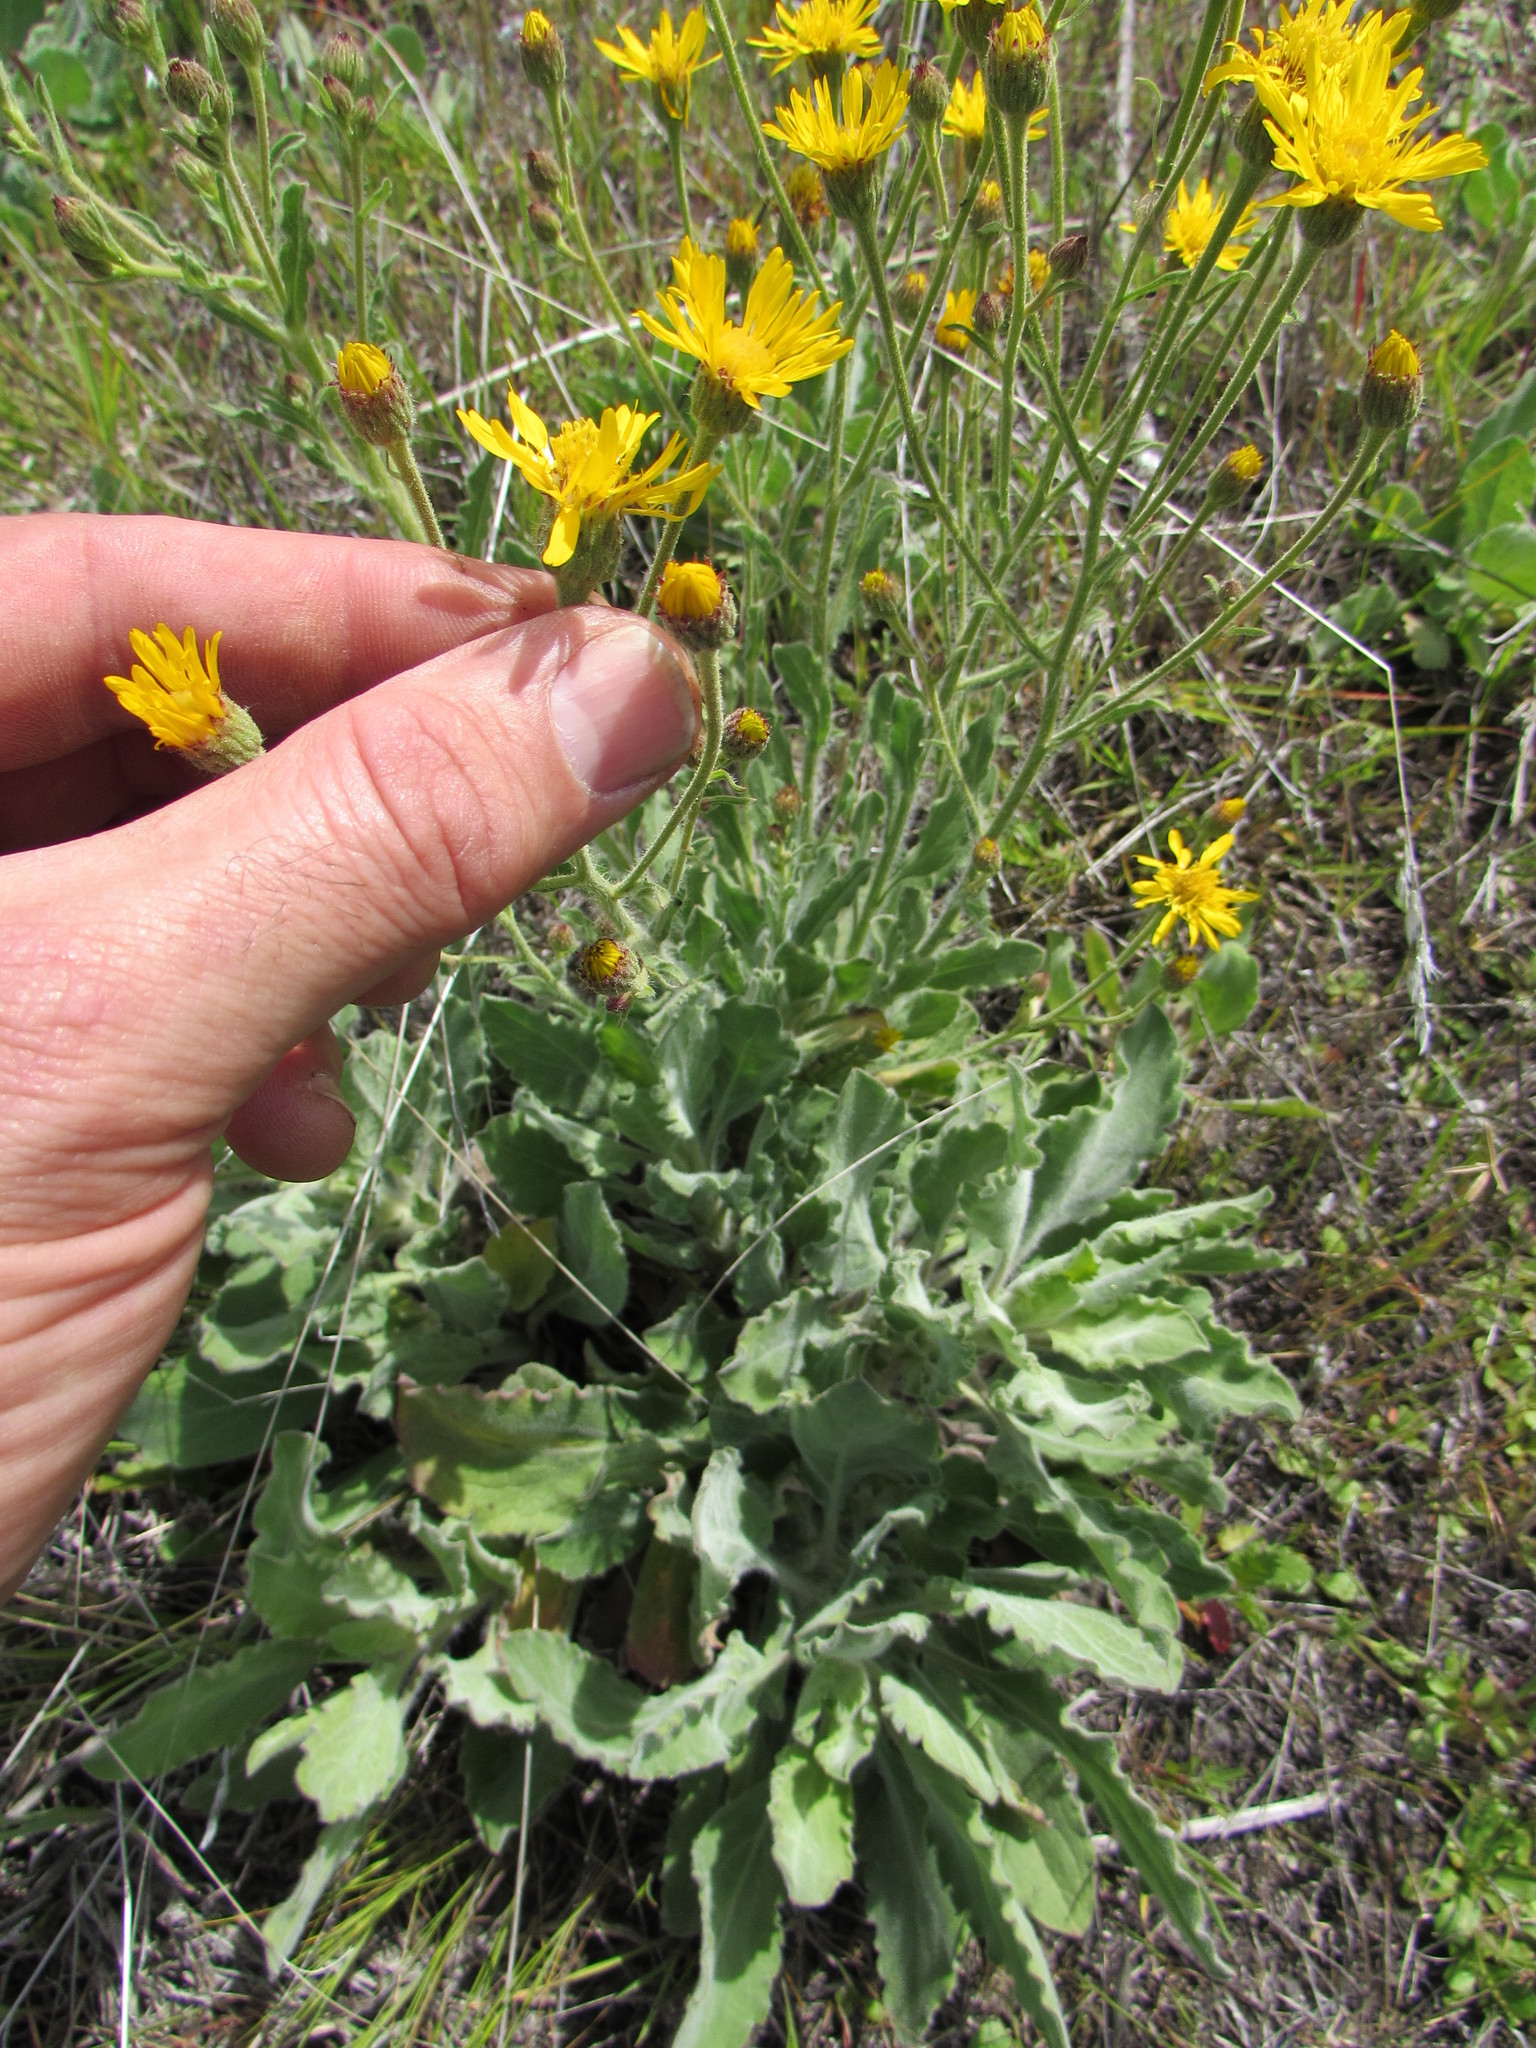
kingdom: Plantae
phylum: Tracheophyta
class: Magnoliopsida
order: Asterales
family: Asteraceae
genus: Heterotheca
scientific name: Heterotheca grandiflora
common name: Telegraphweed
